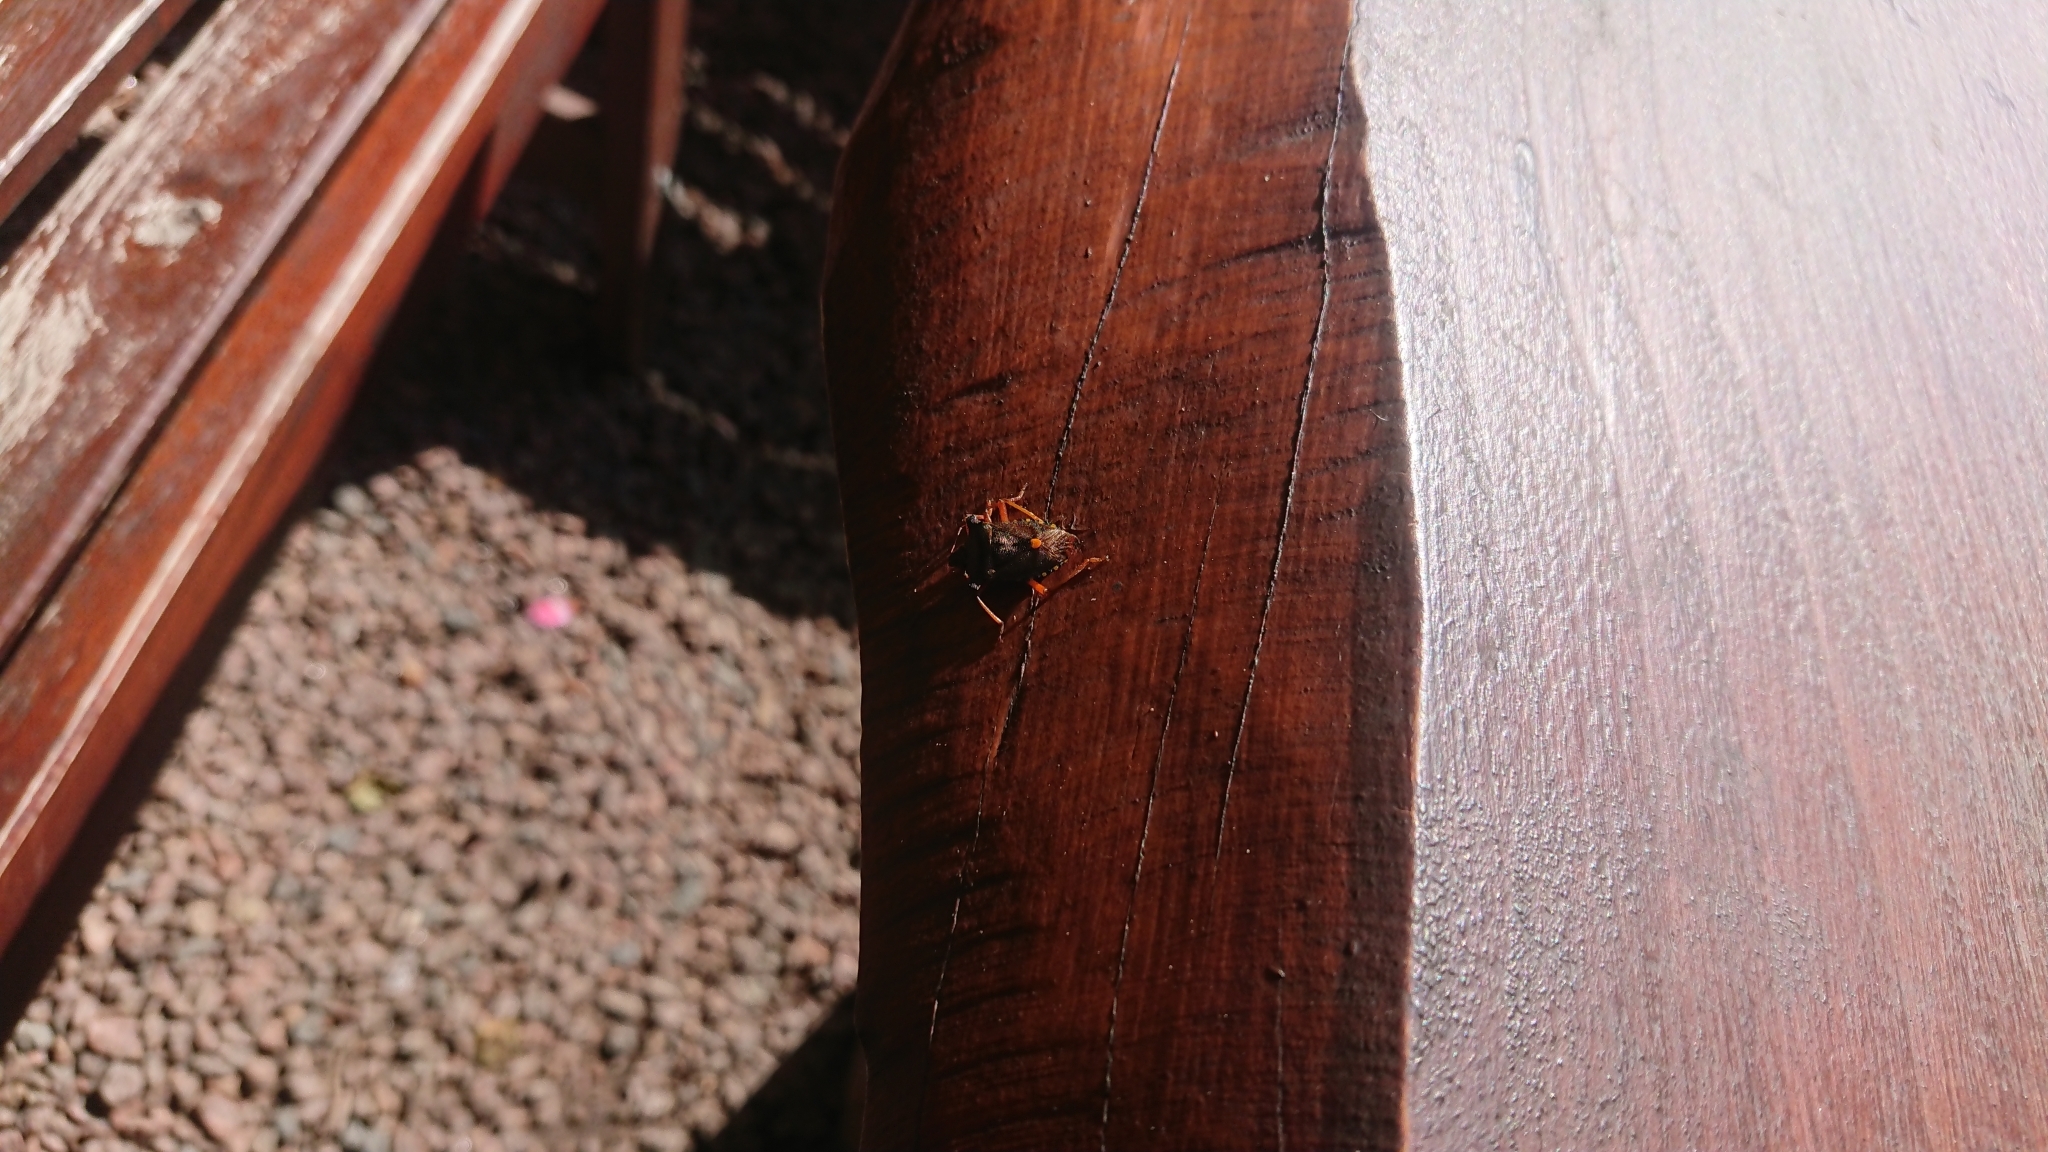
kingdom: Animalia
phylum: Arthropoda
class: Insecta
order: Hemiptera
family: Pentatomidae
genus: Pentatoma
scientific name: Pentatoma rufipes
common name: Forest bug
